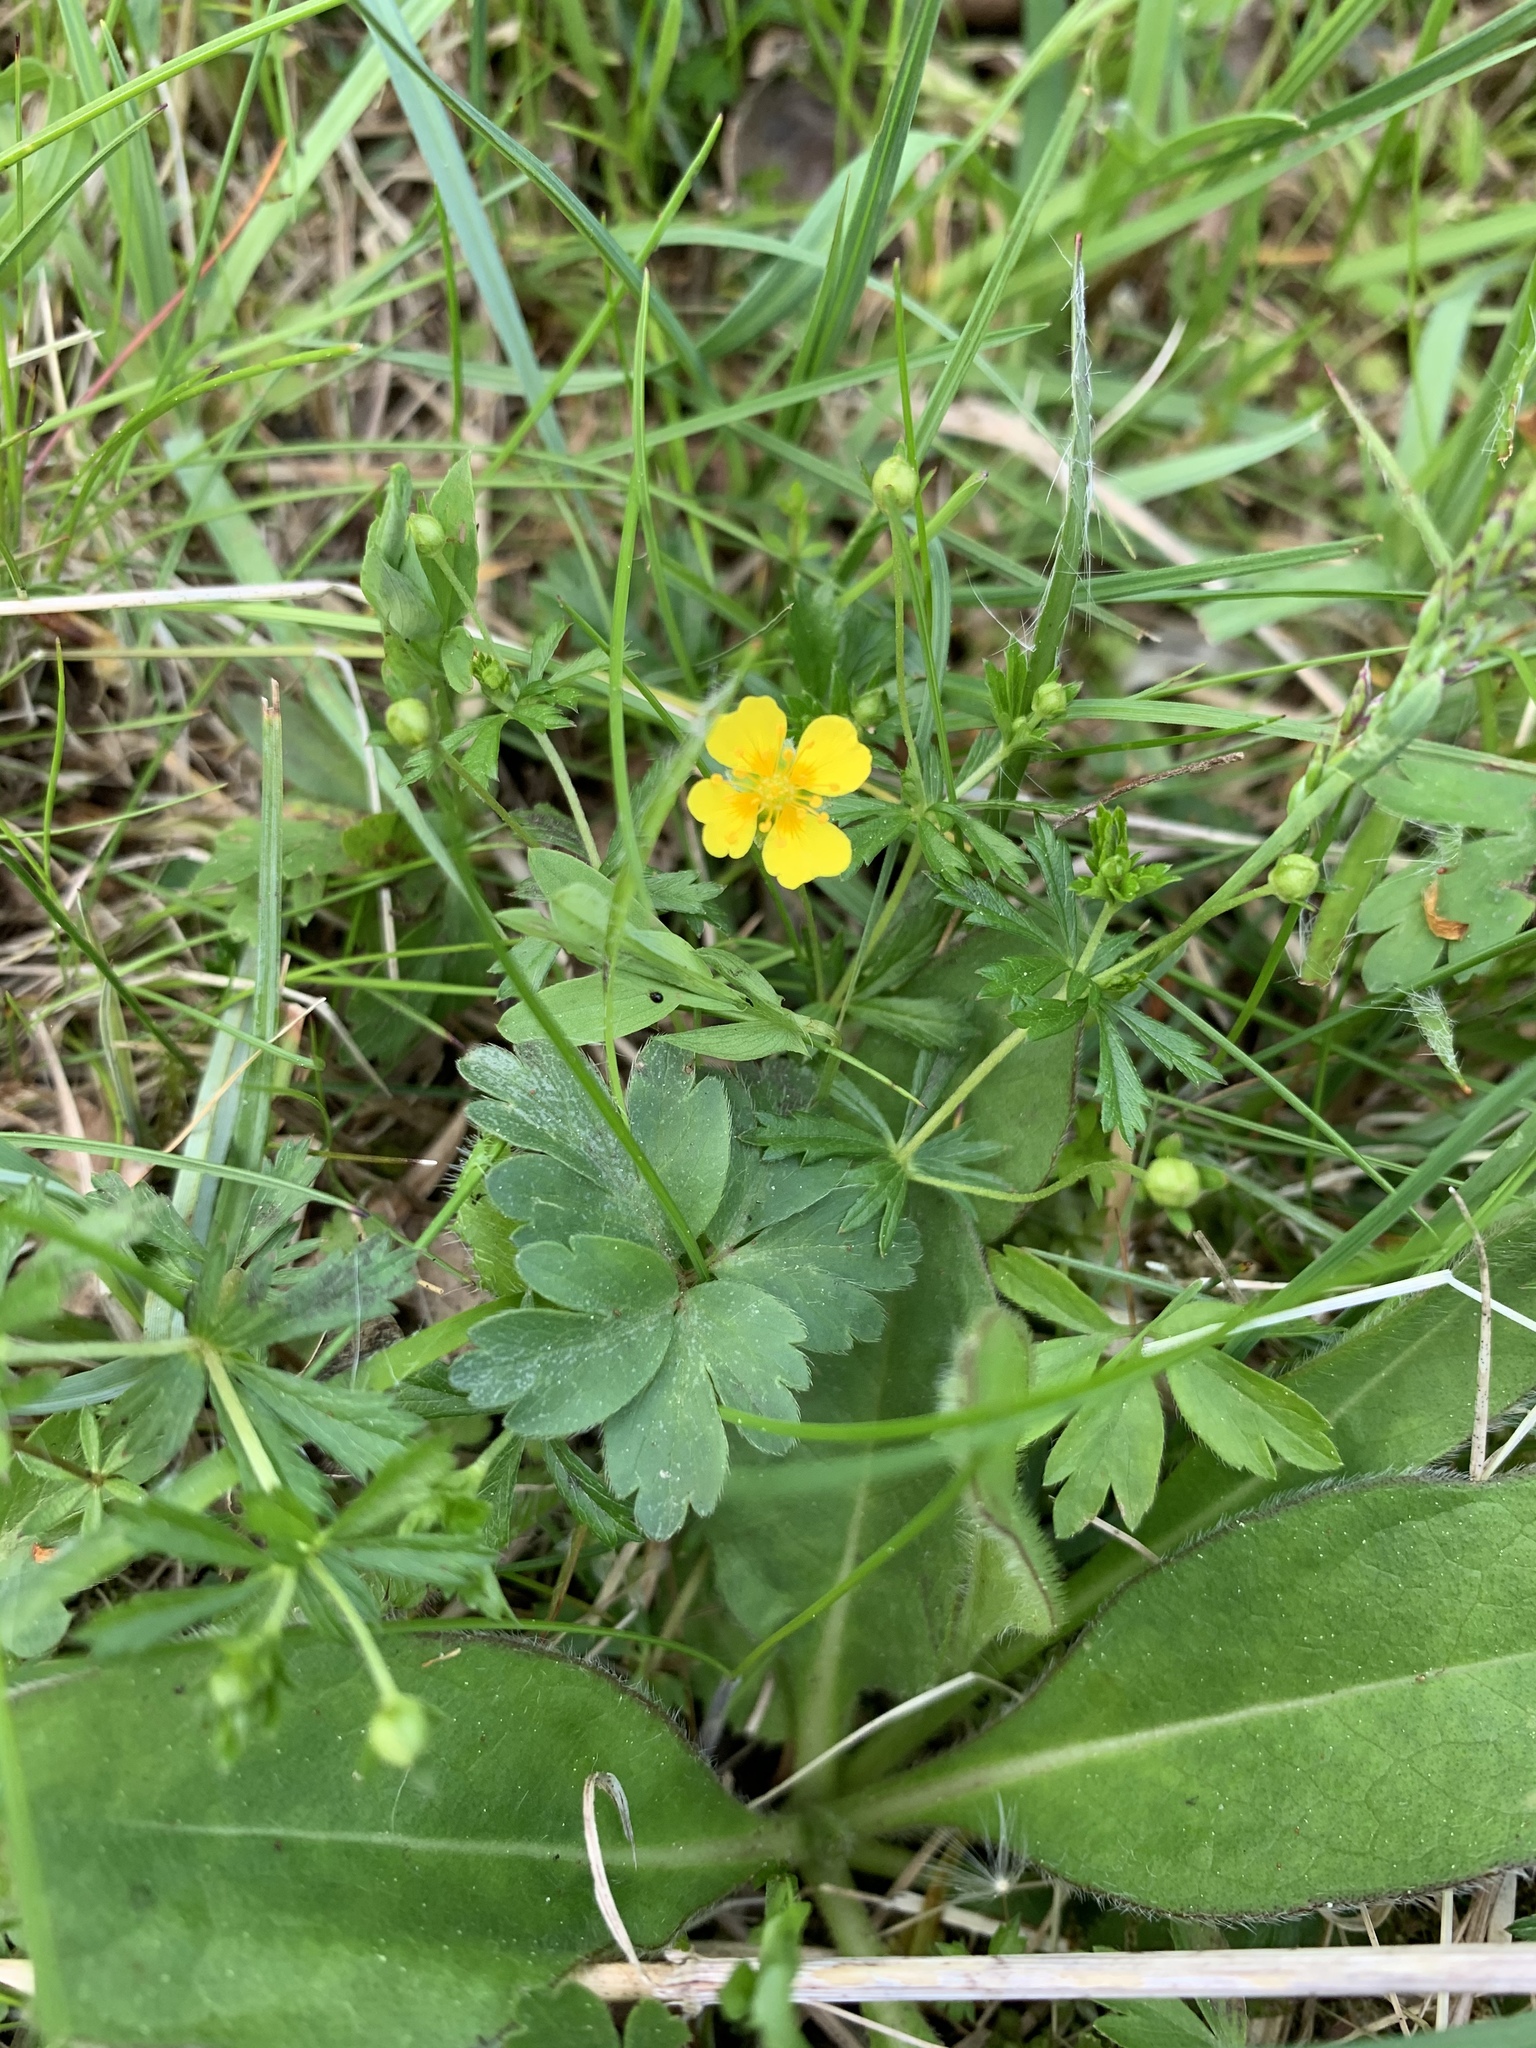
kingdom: Plantae
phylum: Tracheophyta
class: Magnoliopsida
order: Rosales
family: Rosaceae
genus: Potentilla
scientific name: Potentilla erecta
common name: Tormentil
